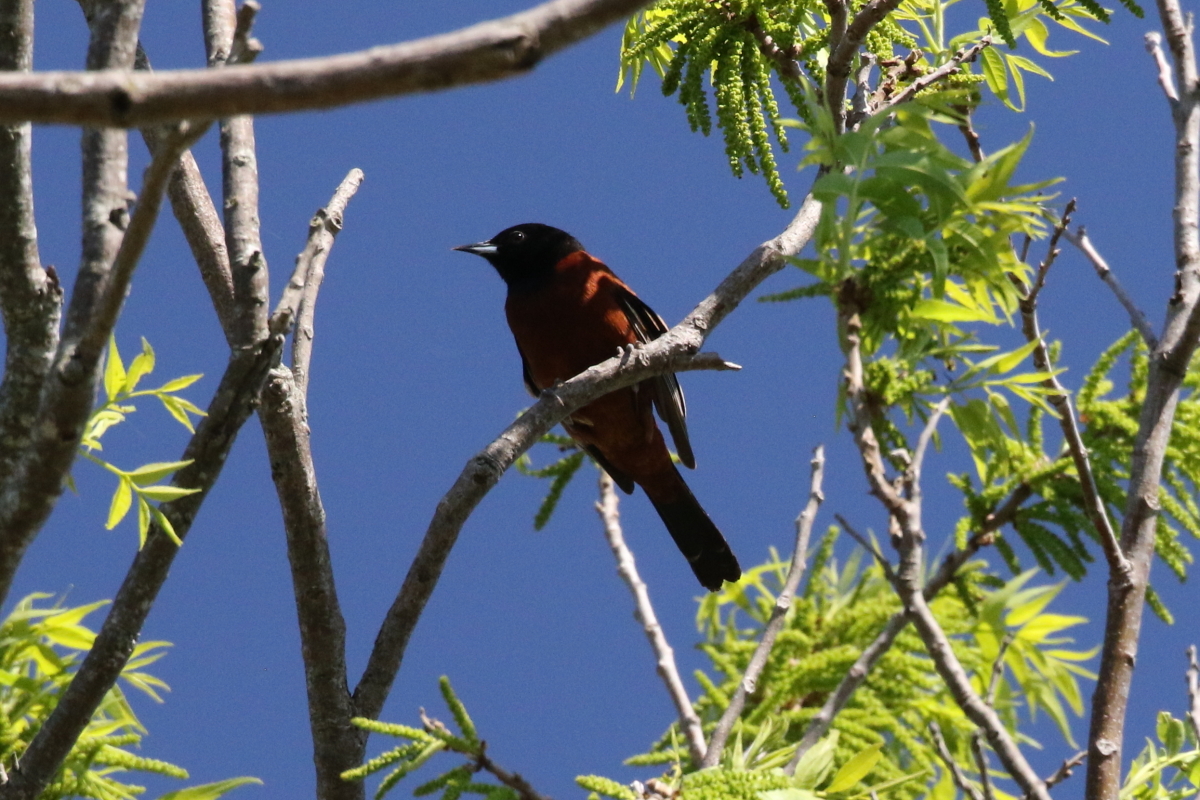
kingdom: Animalia
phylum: Chordata
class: Aves
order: Passeriformes
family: Icteridae
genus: Icterus
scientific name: Icterus spurius
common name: Orchard oriole
